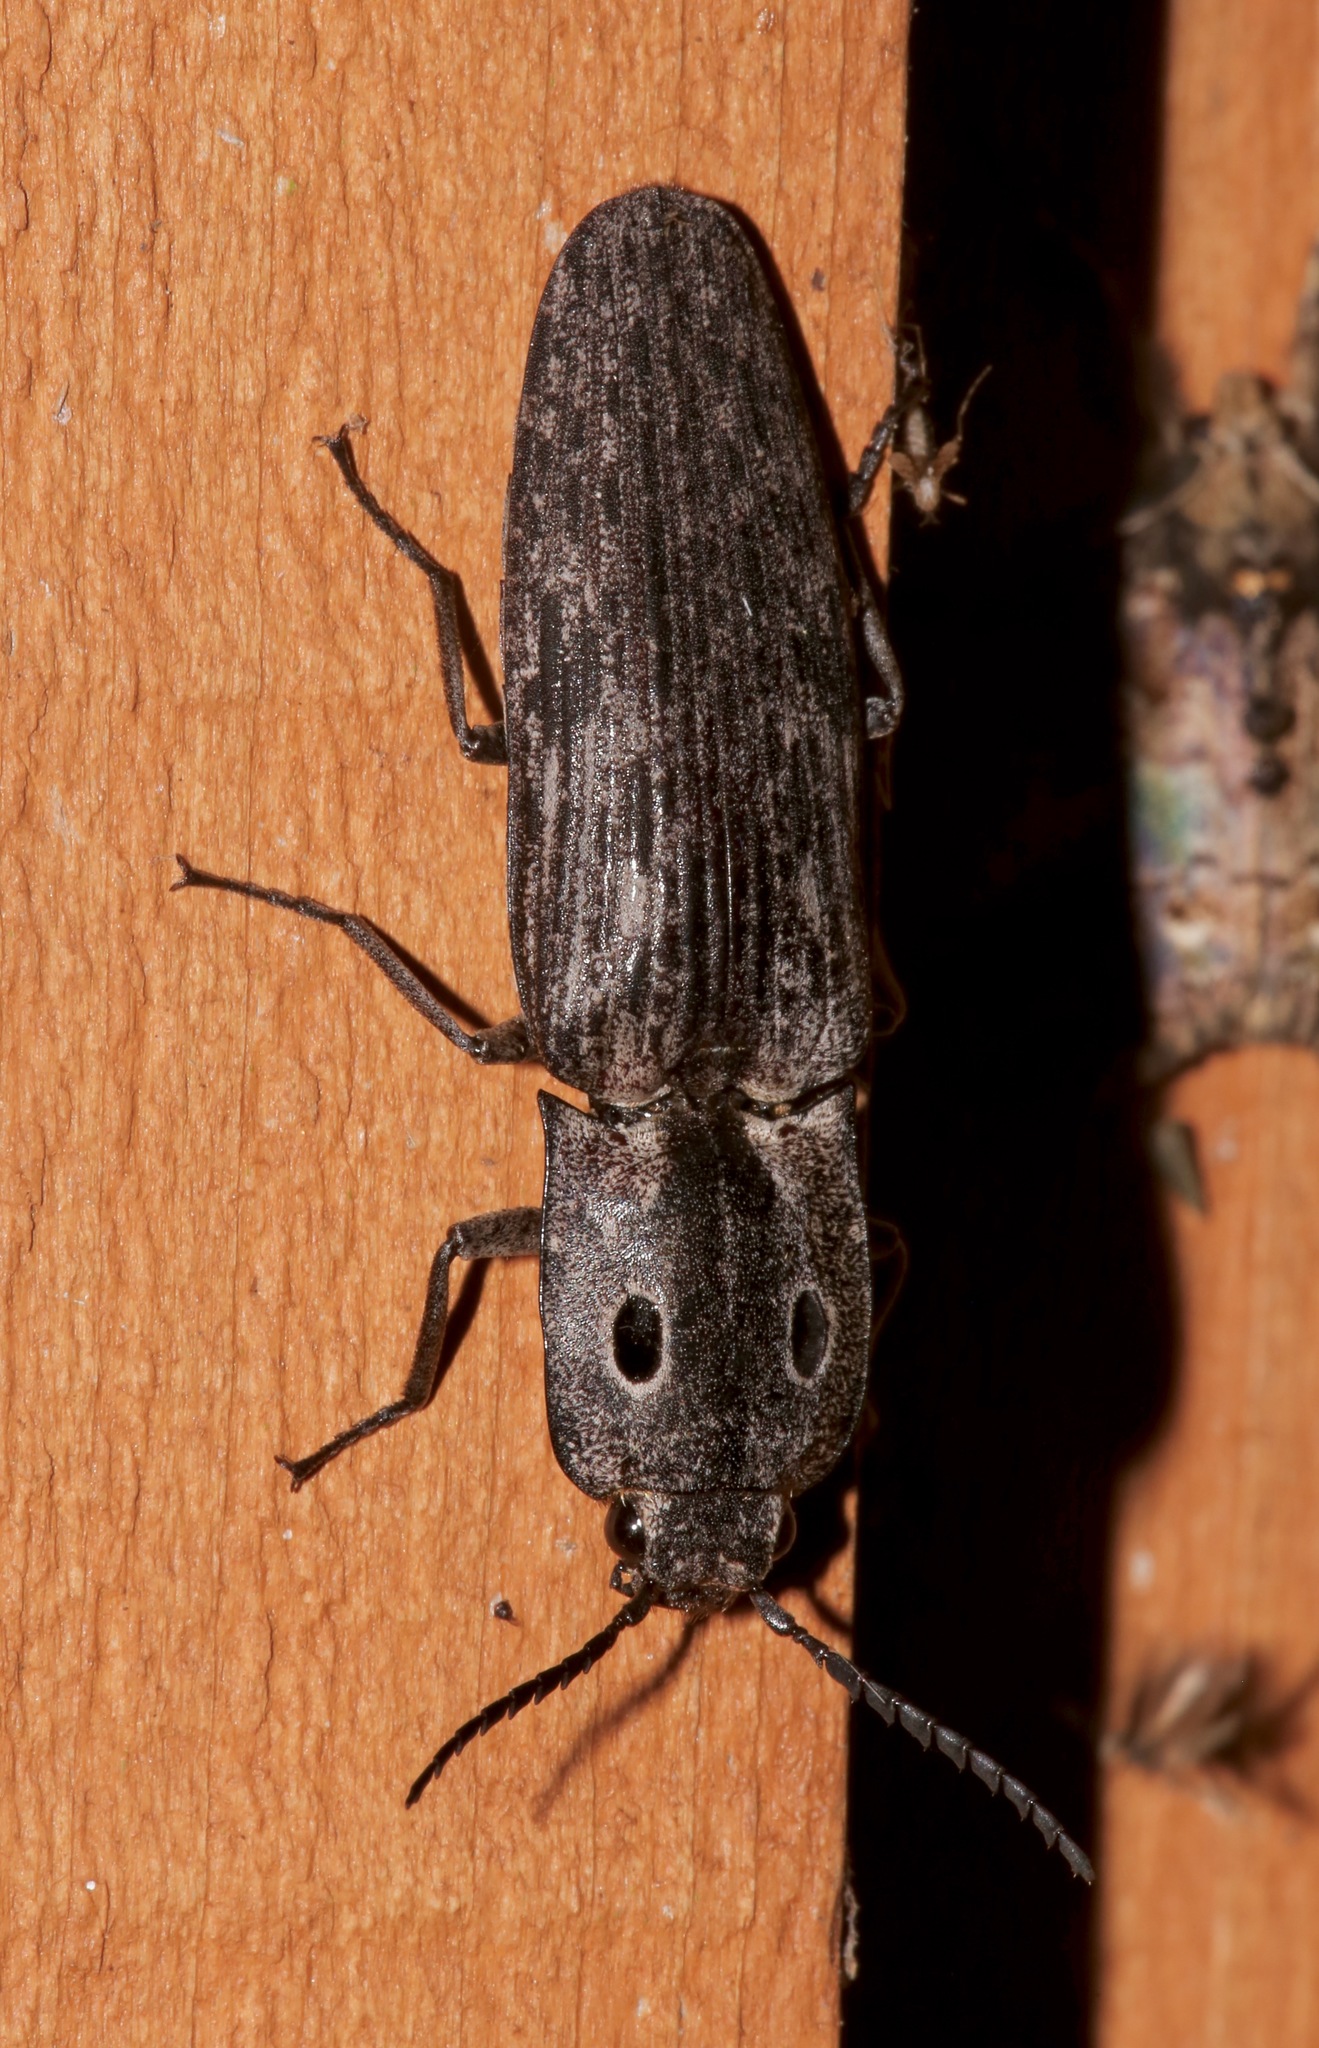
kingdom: Animalia
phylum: Arthropoda
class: Insecta
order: Coleoptera
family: Elateridae
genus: Alaus
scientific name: Alaus myops
